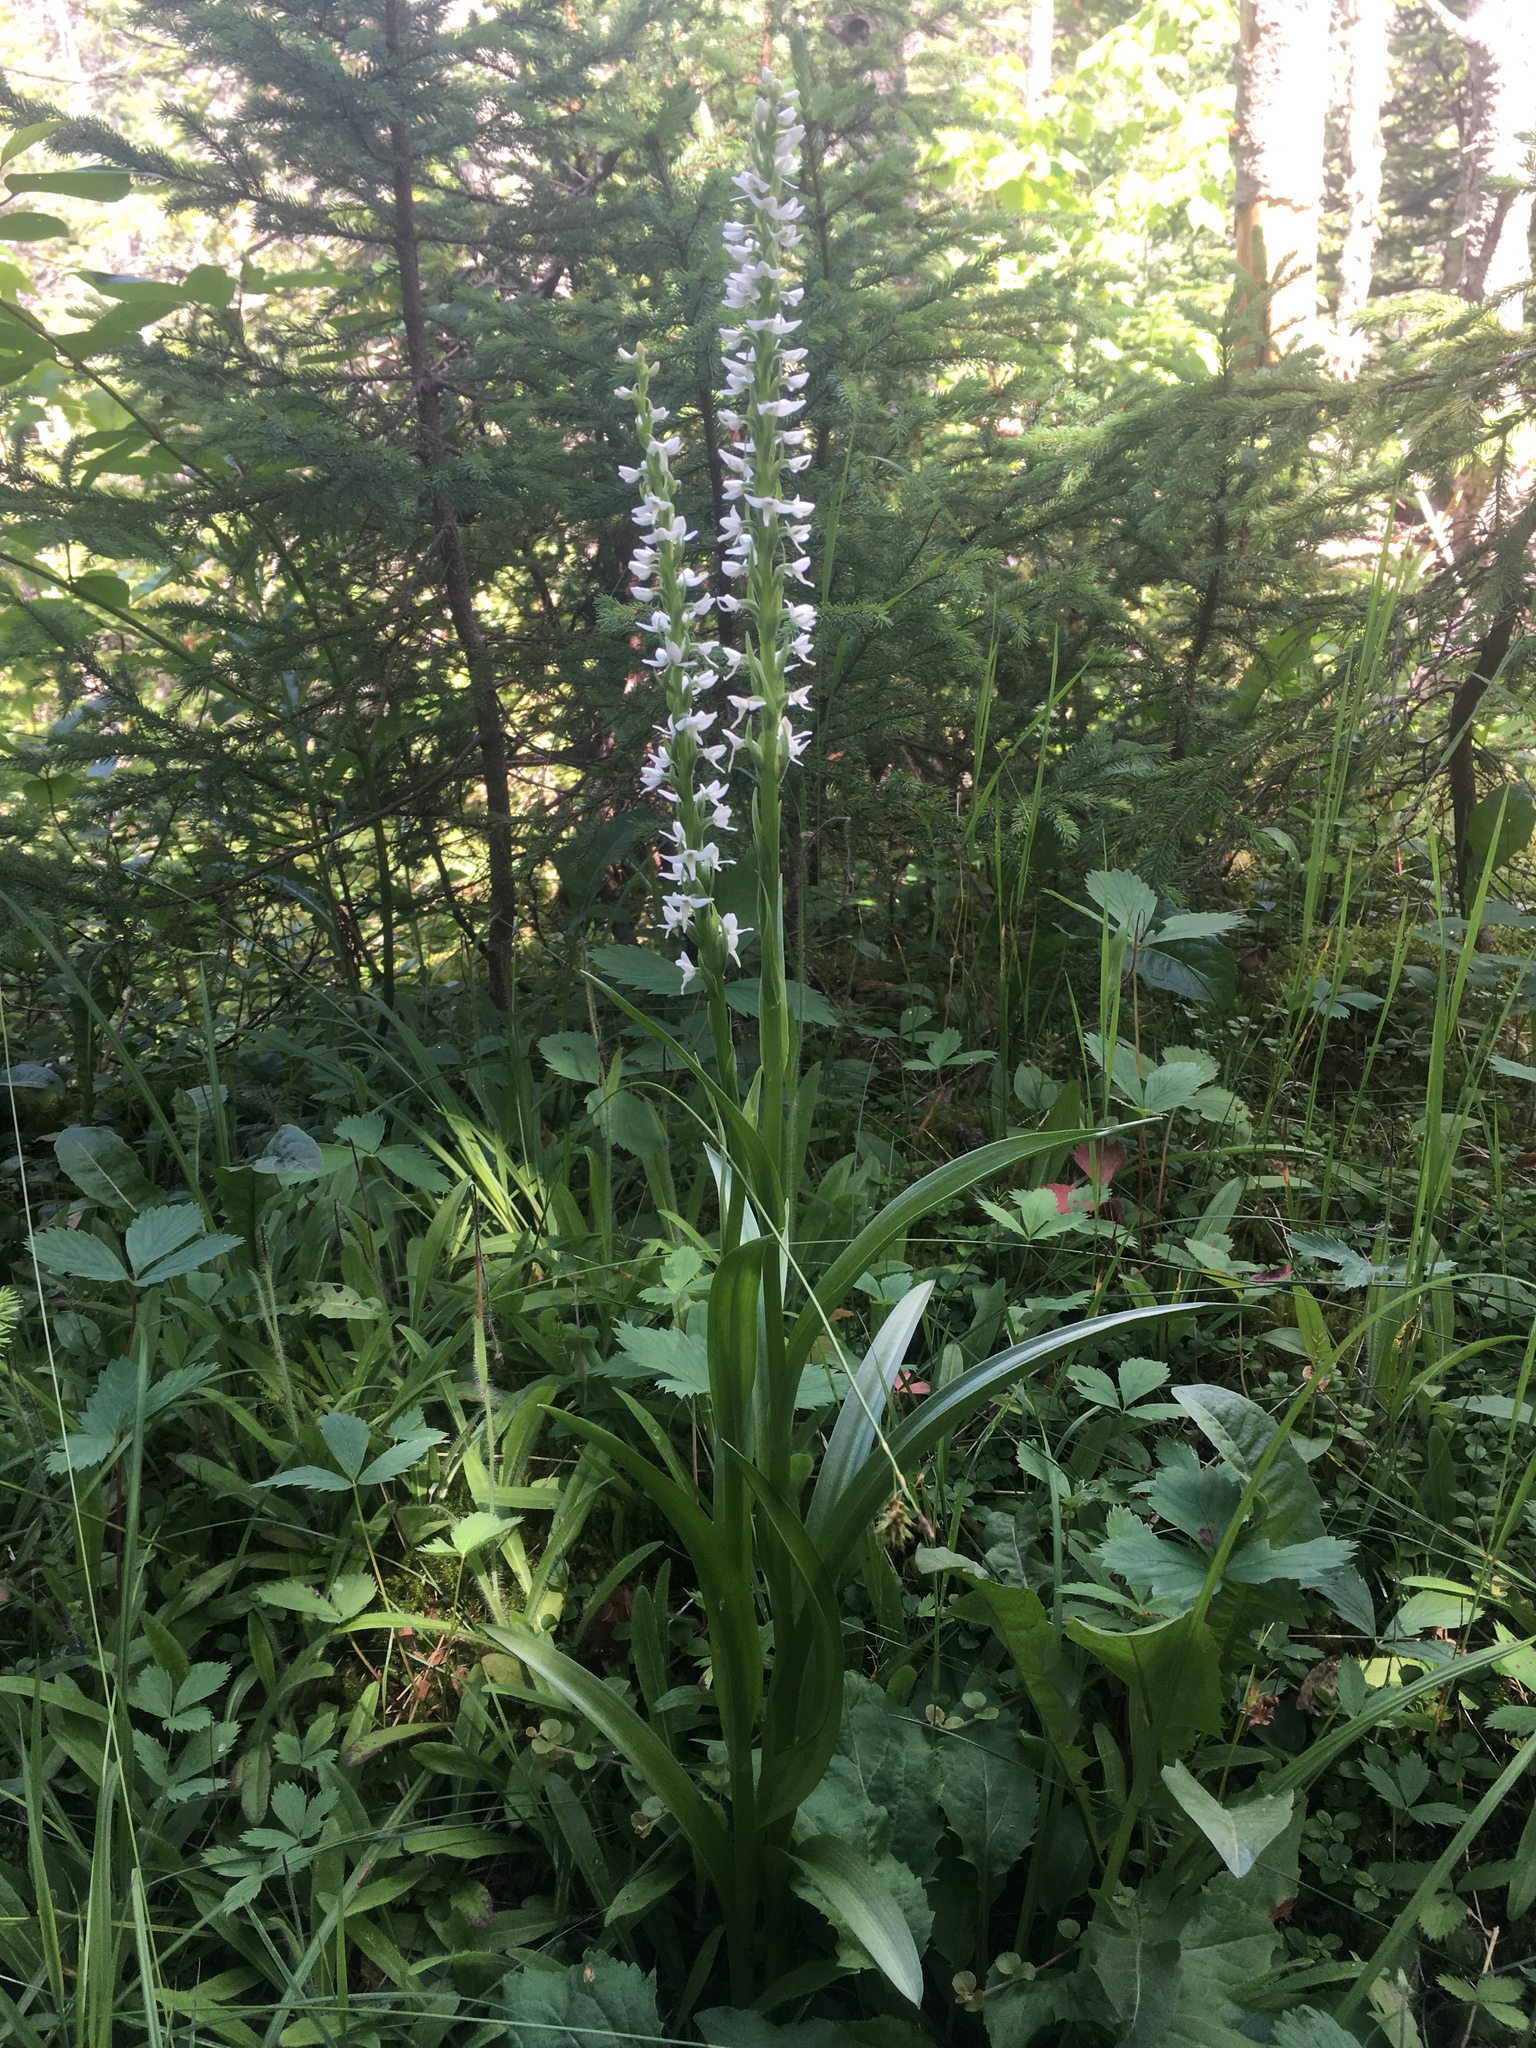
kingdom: Plantae
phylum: Tracheophyta
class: Liliopsida
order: Asparagales
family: Orchidaceae
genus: Platanthera
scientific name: Platanthera dilatata
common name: Bog candles
